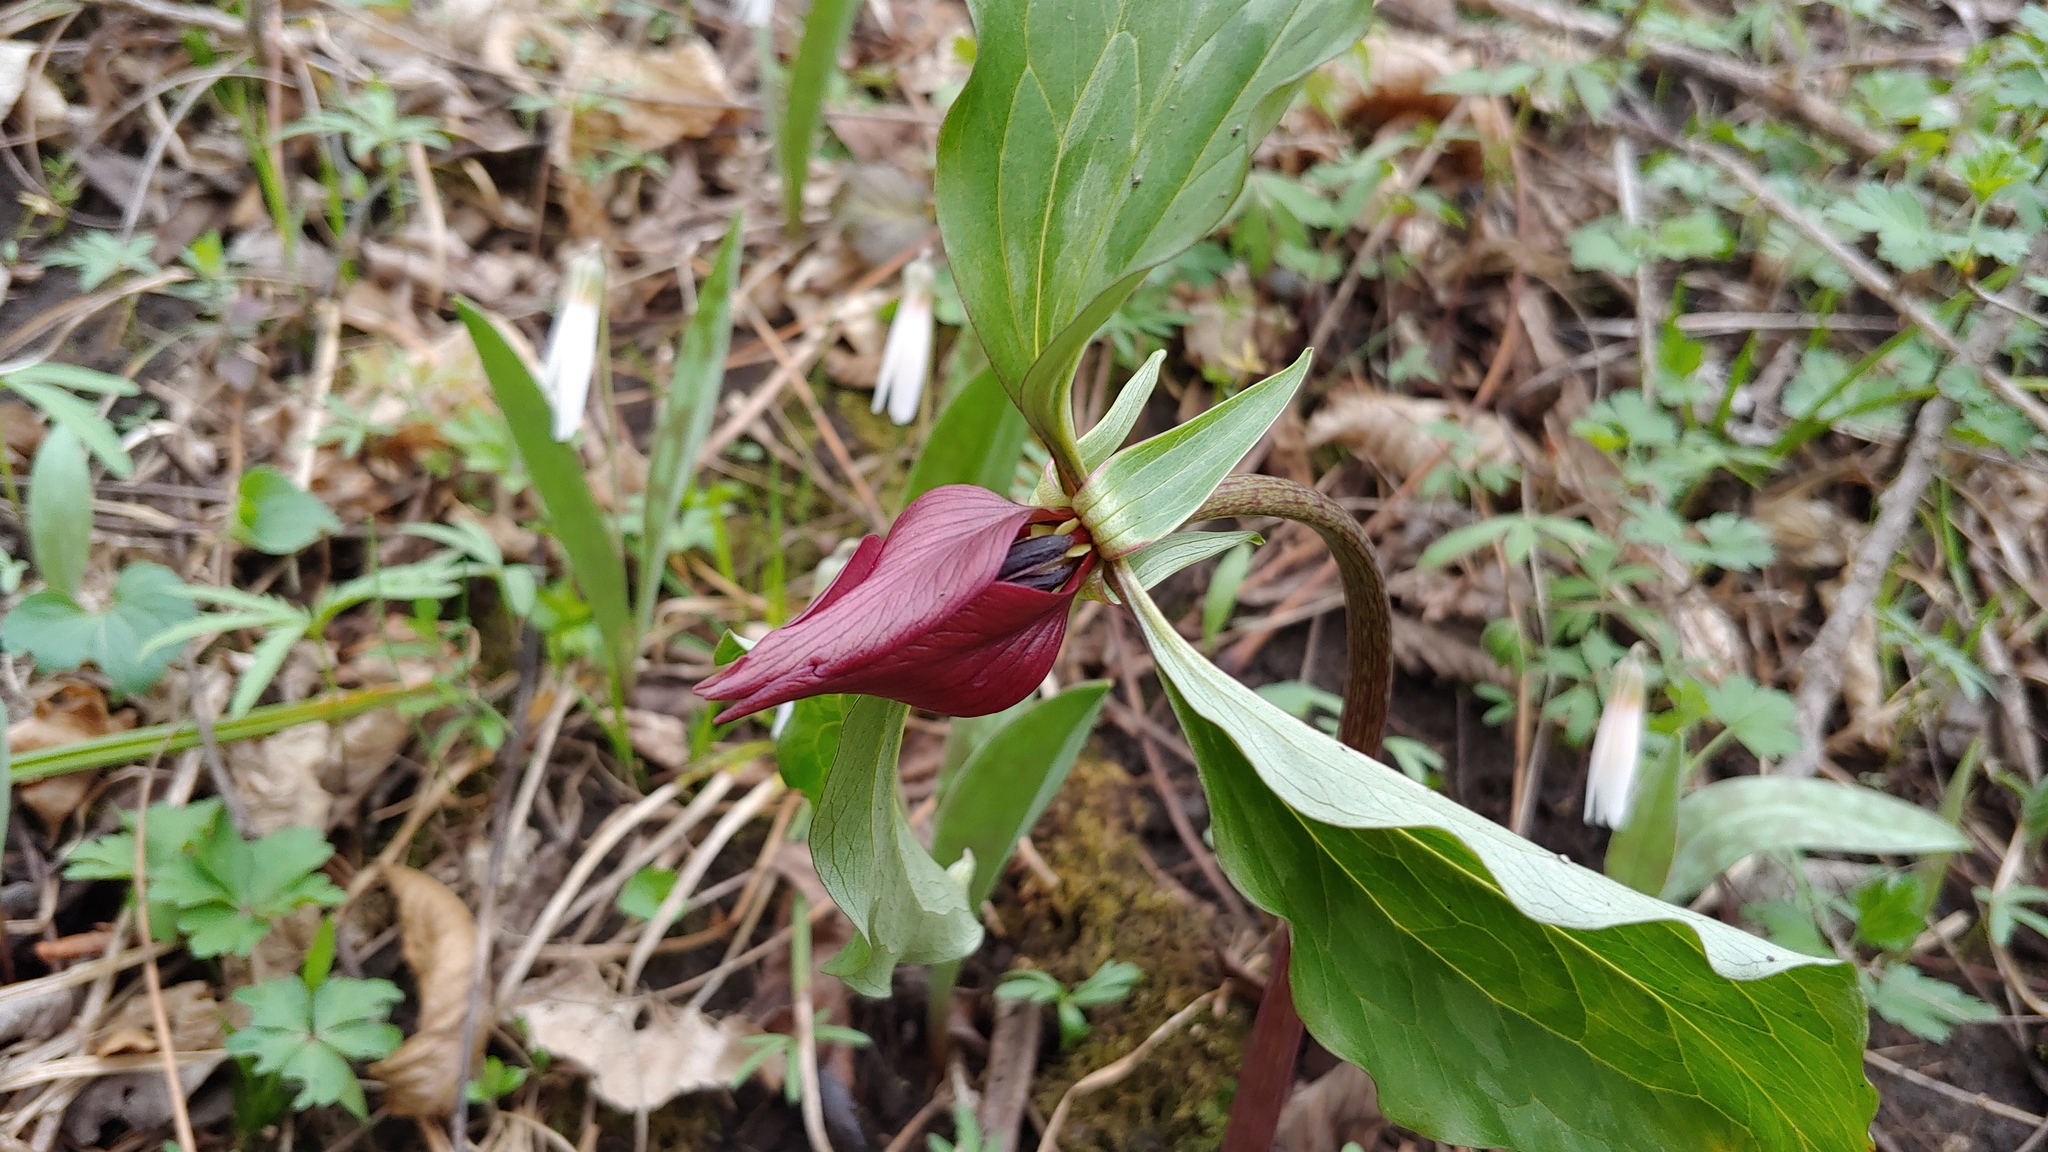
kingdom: Plantae
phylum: Tracheophyta
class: Liliopsida
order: Liliales
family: Melanthiaceae
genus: Trillium
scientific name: Trillium recurvatum
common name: Bloody butcher
